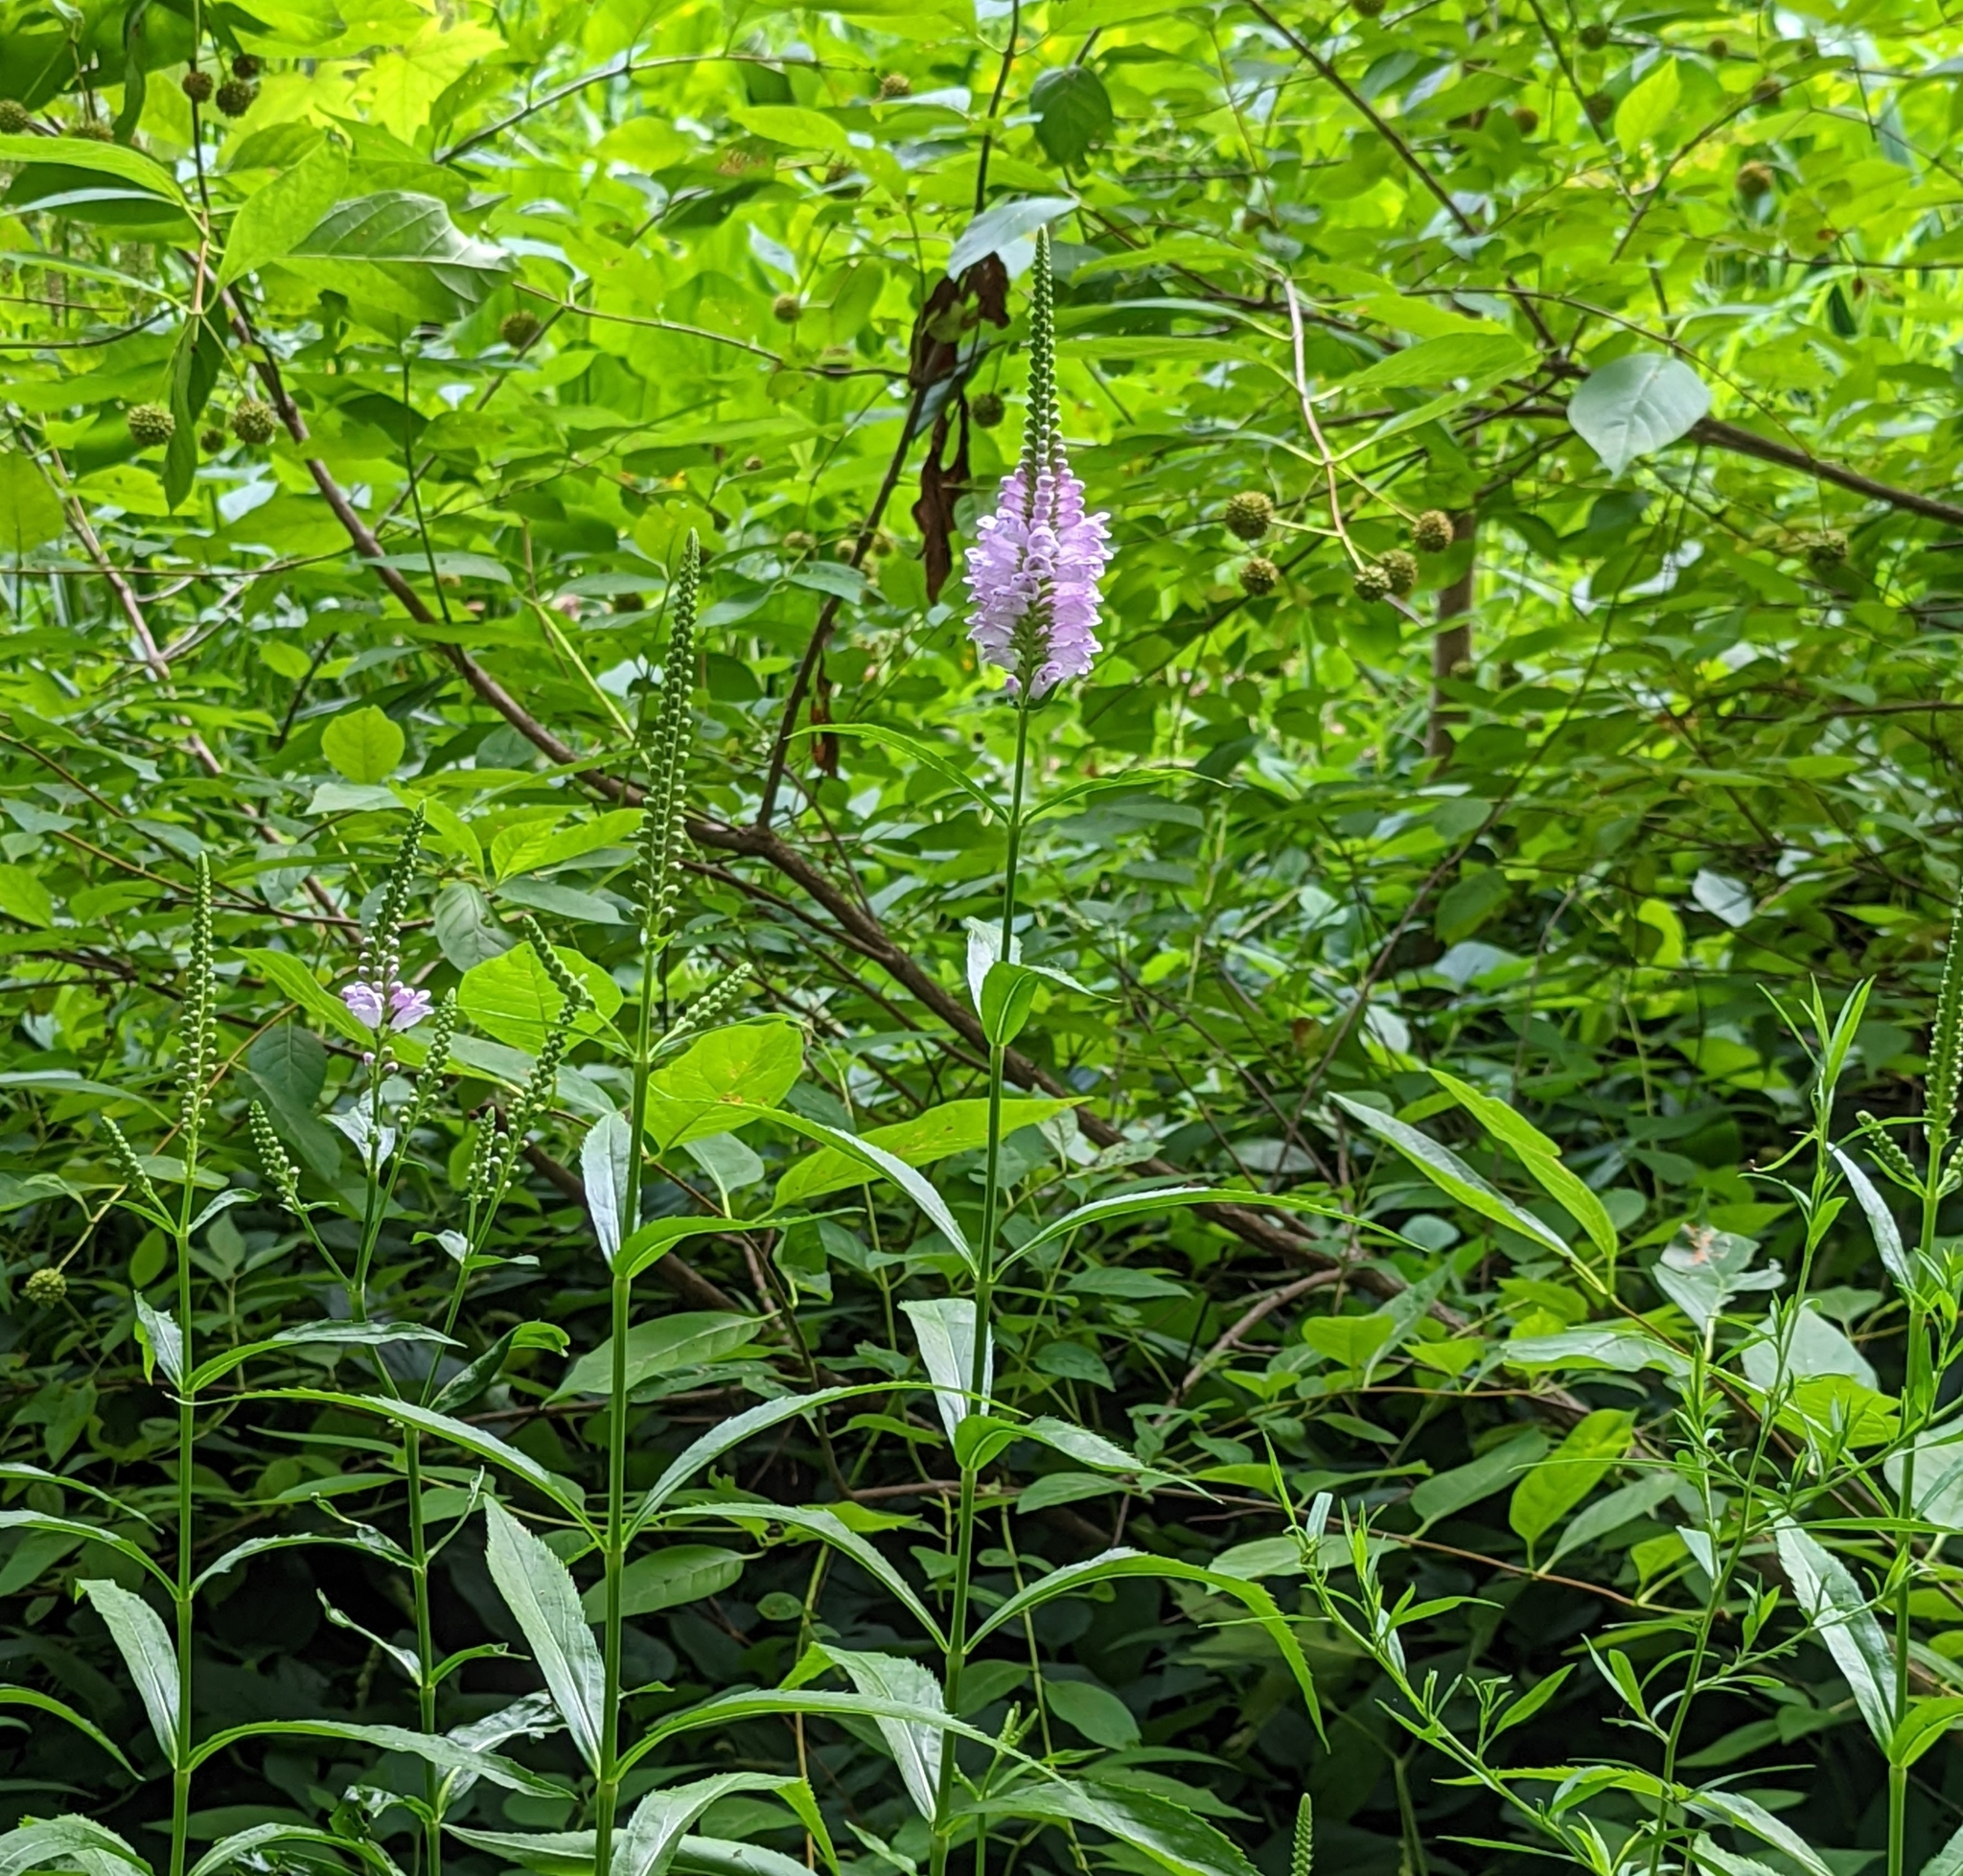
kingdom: Plantae
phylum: Tracheophyta
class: Magnoliopsida
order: Lamiales
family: Lamiaceae
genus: Physostegia
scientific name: Physostegia virginiana
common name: Obedient-plant
